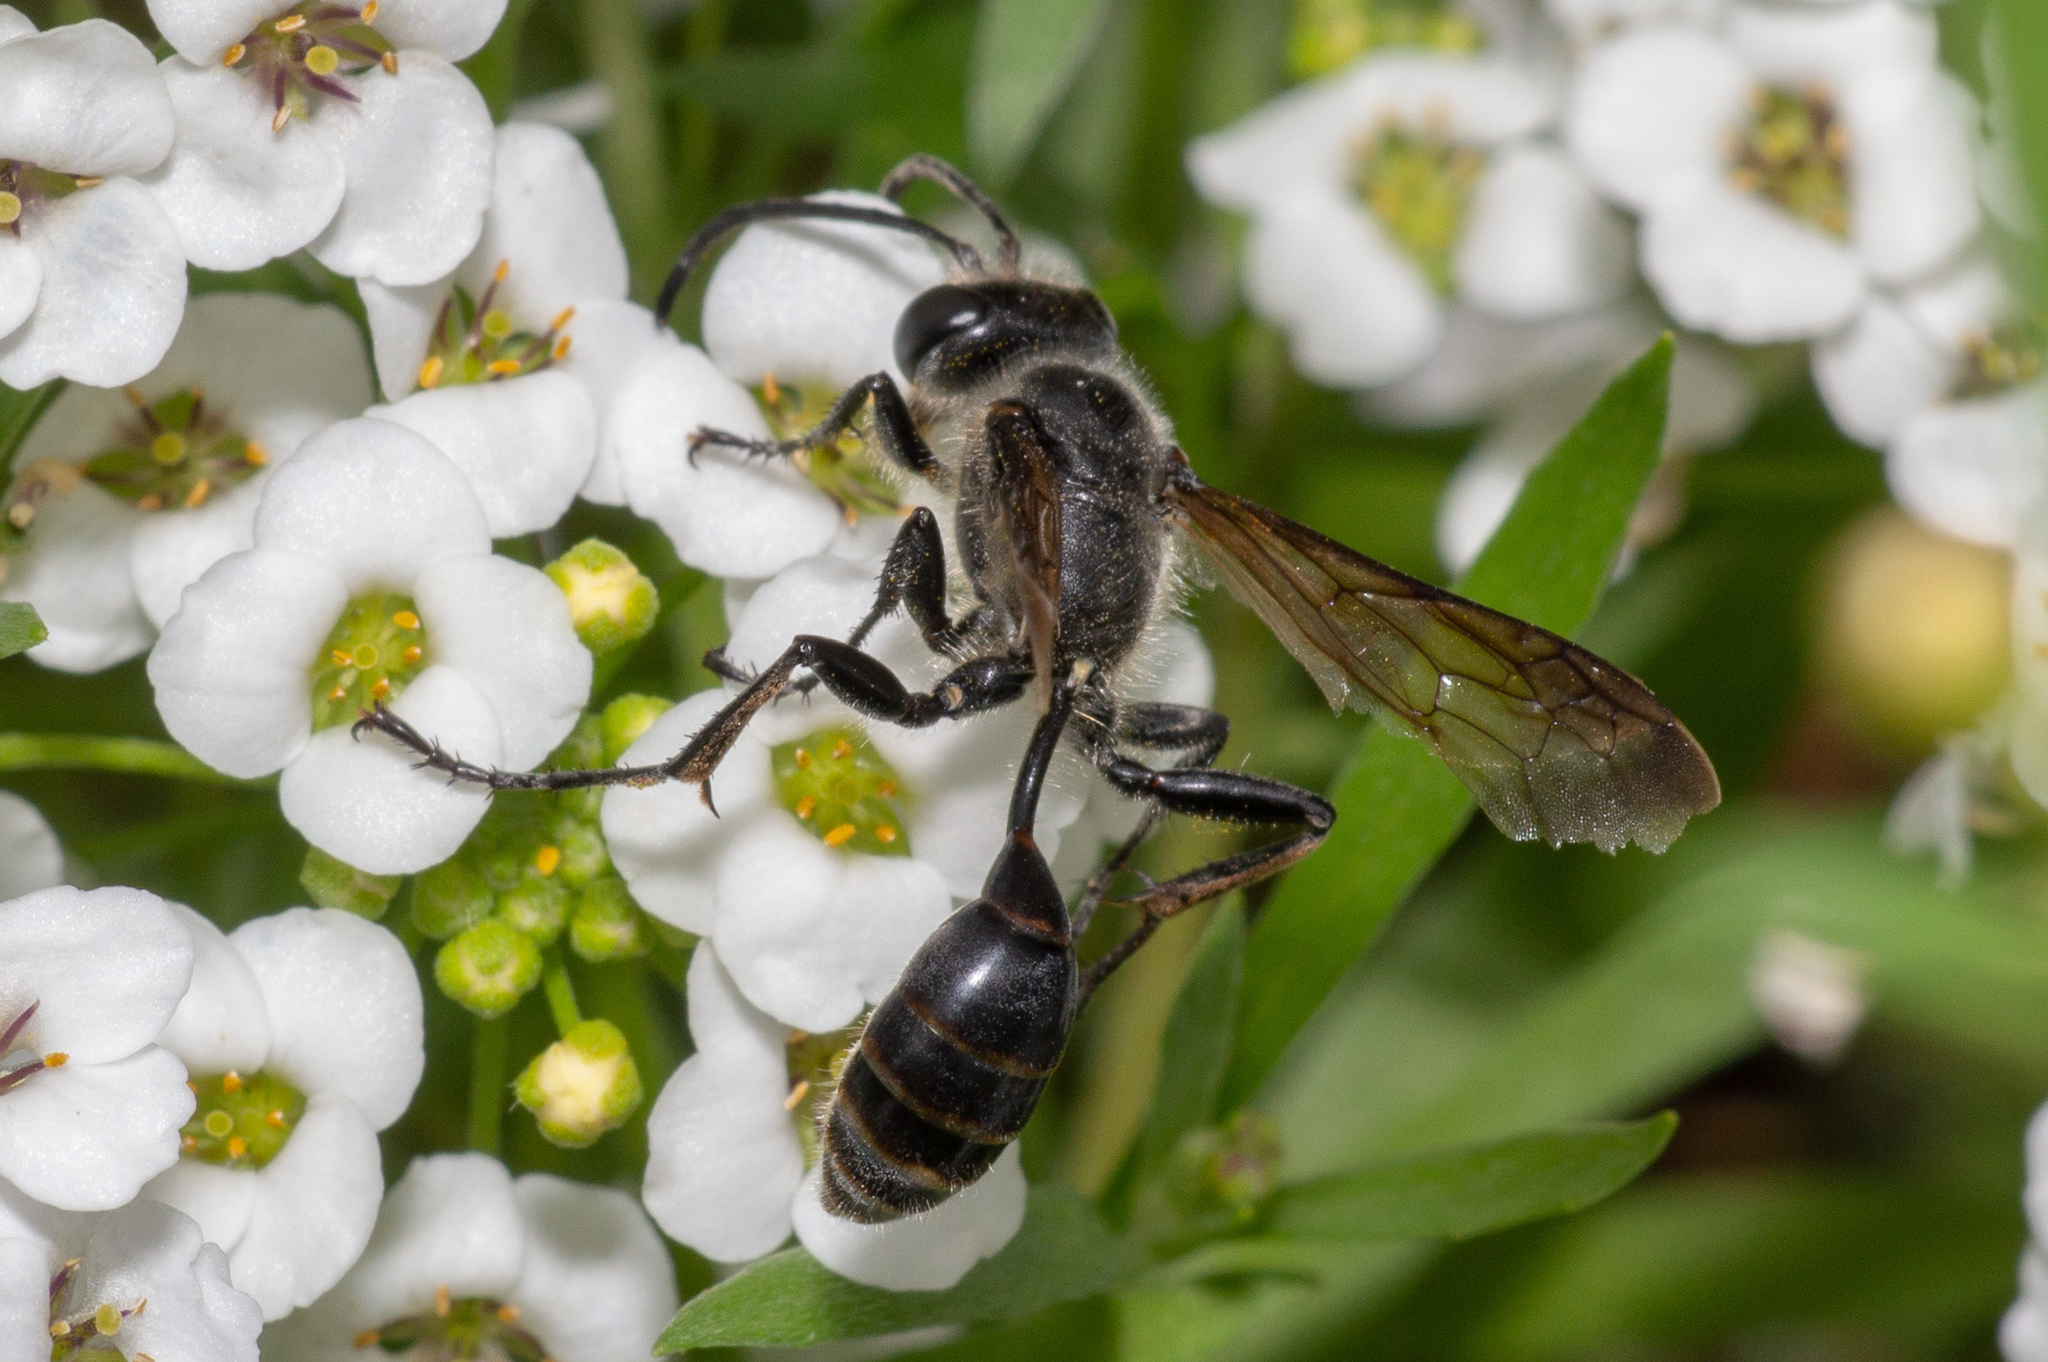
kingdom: Animalia
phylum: Arthropoda
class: Insecta
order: Hymenoptera
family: Sphecidae
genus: Isodontia
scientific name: Isodontia mexicana
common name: Mud dauber
